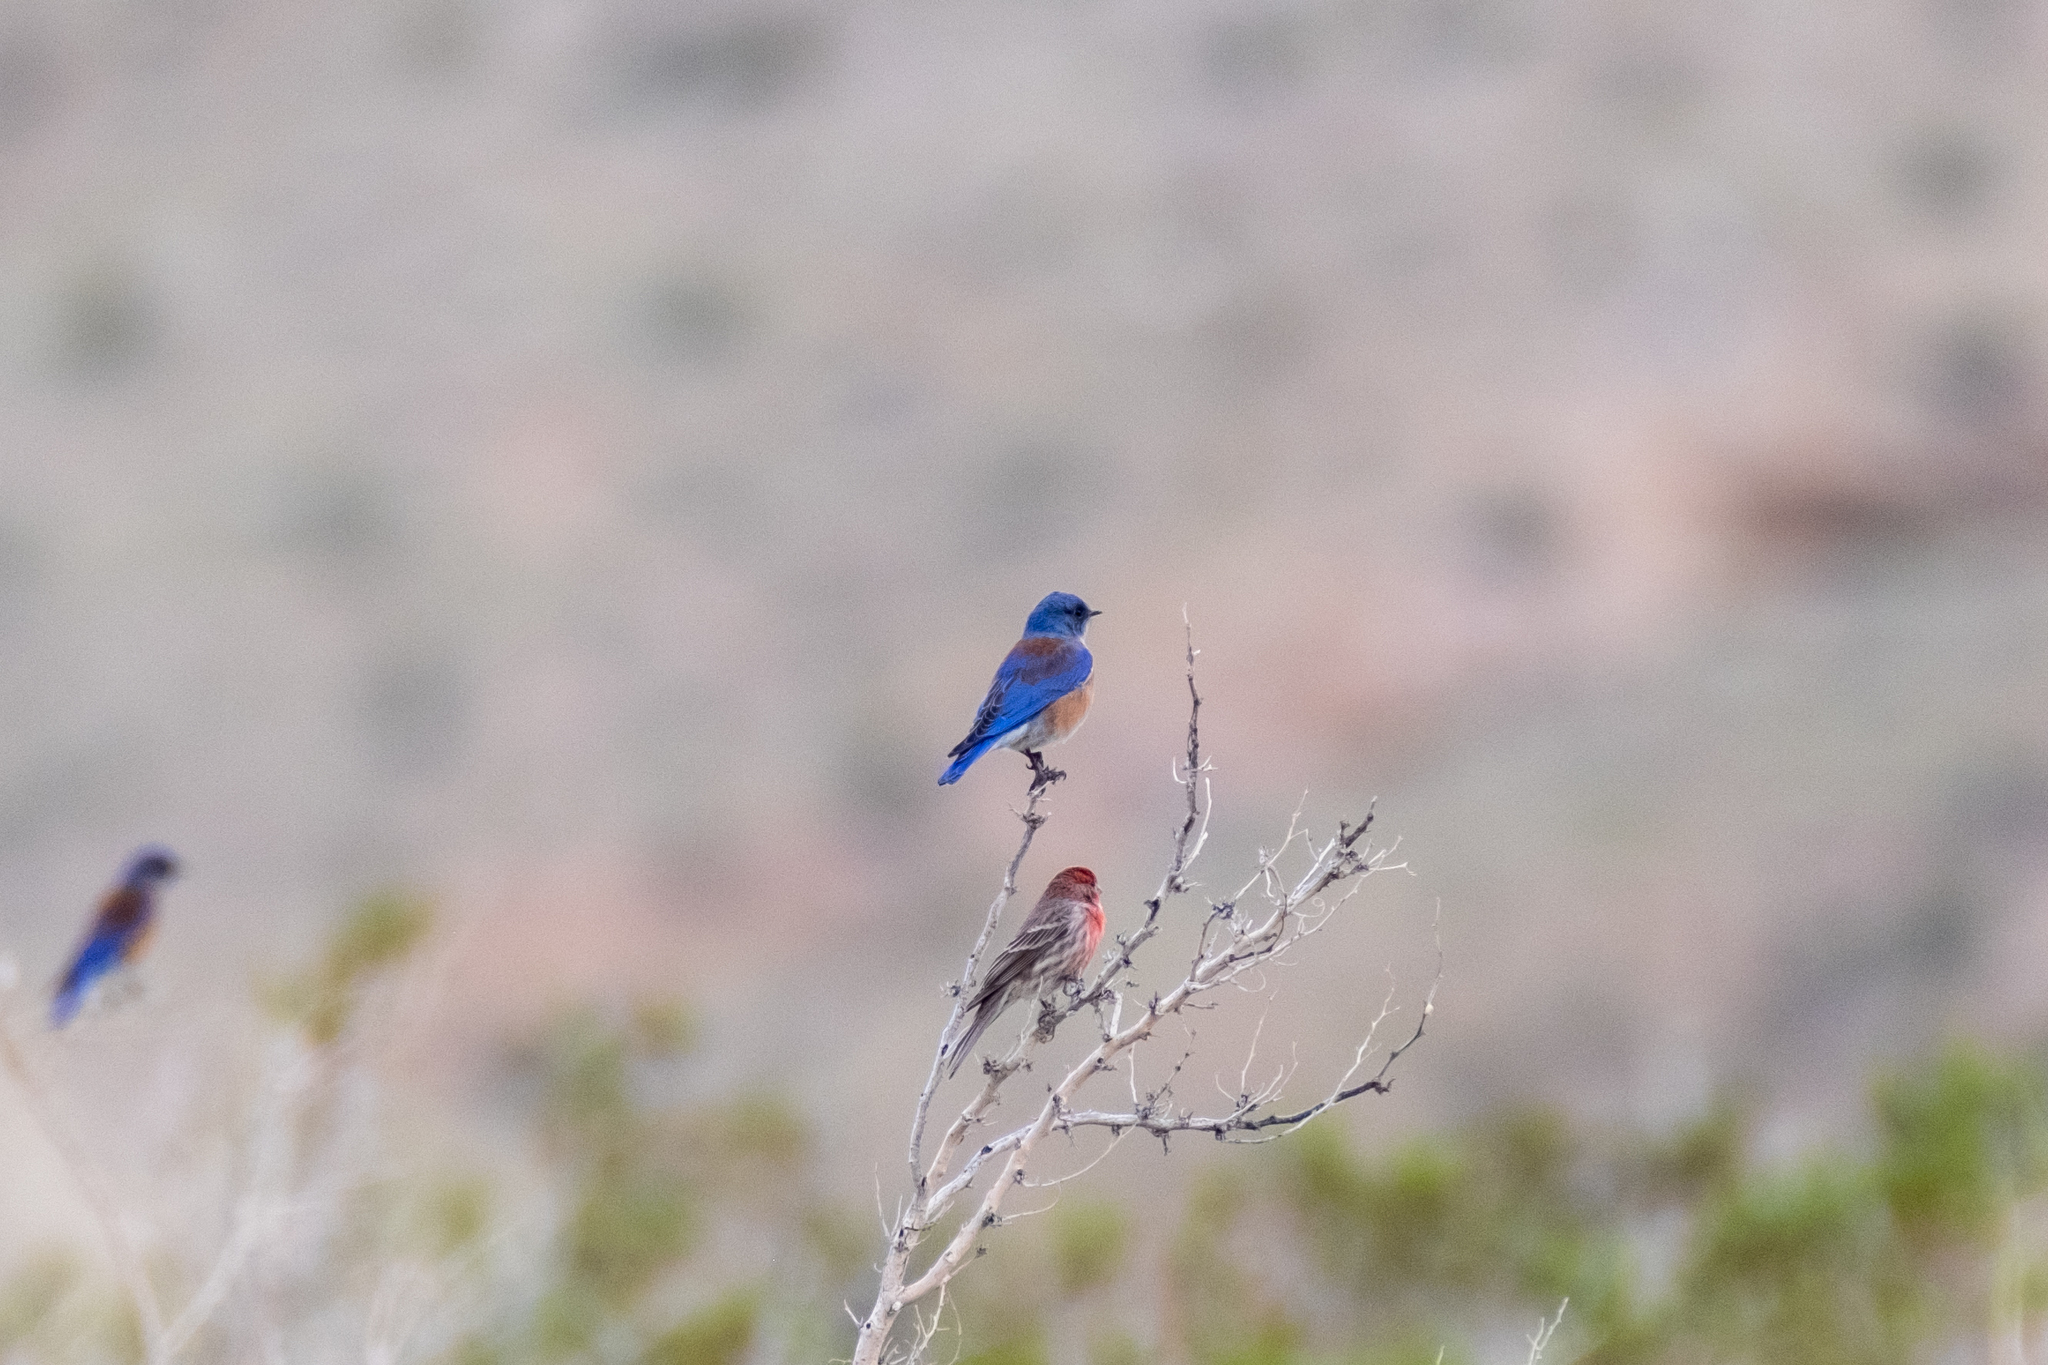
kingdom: Animalia
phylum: Chordata
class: Aves
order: Passeriformes
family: Turdidae
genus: Sialia
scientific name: Sialia mexicana
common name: Western bluebird
